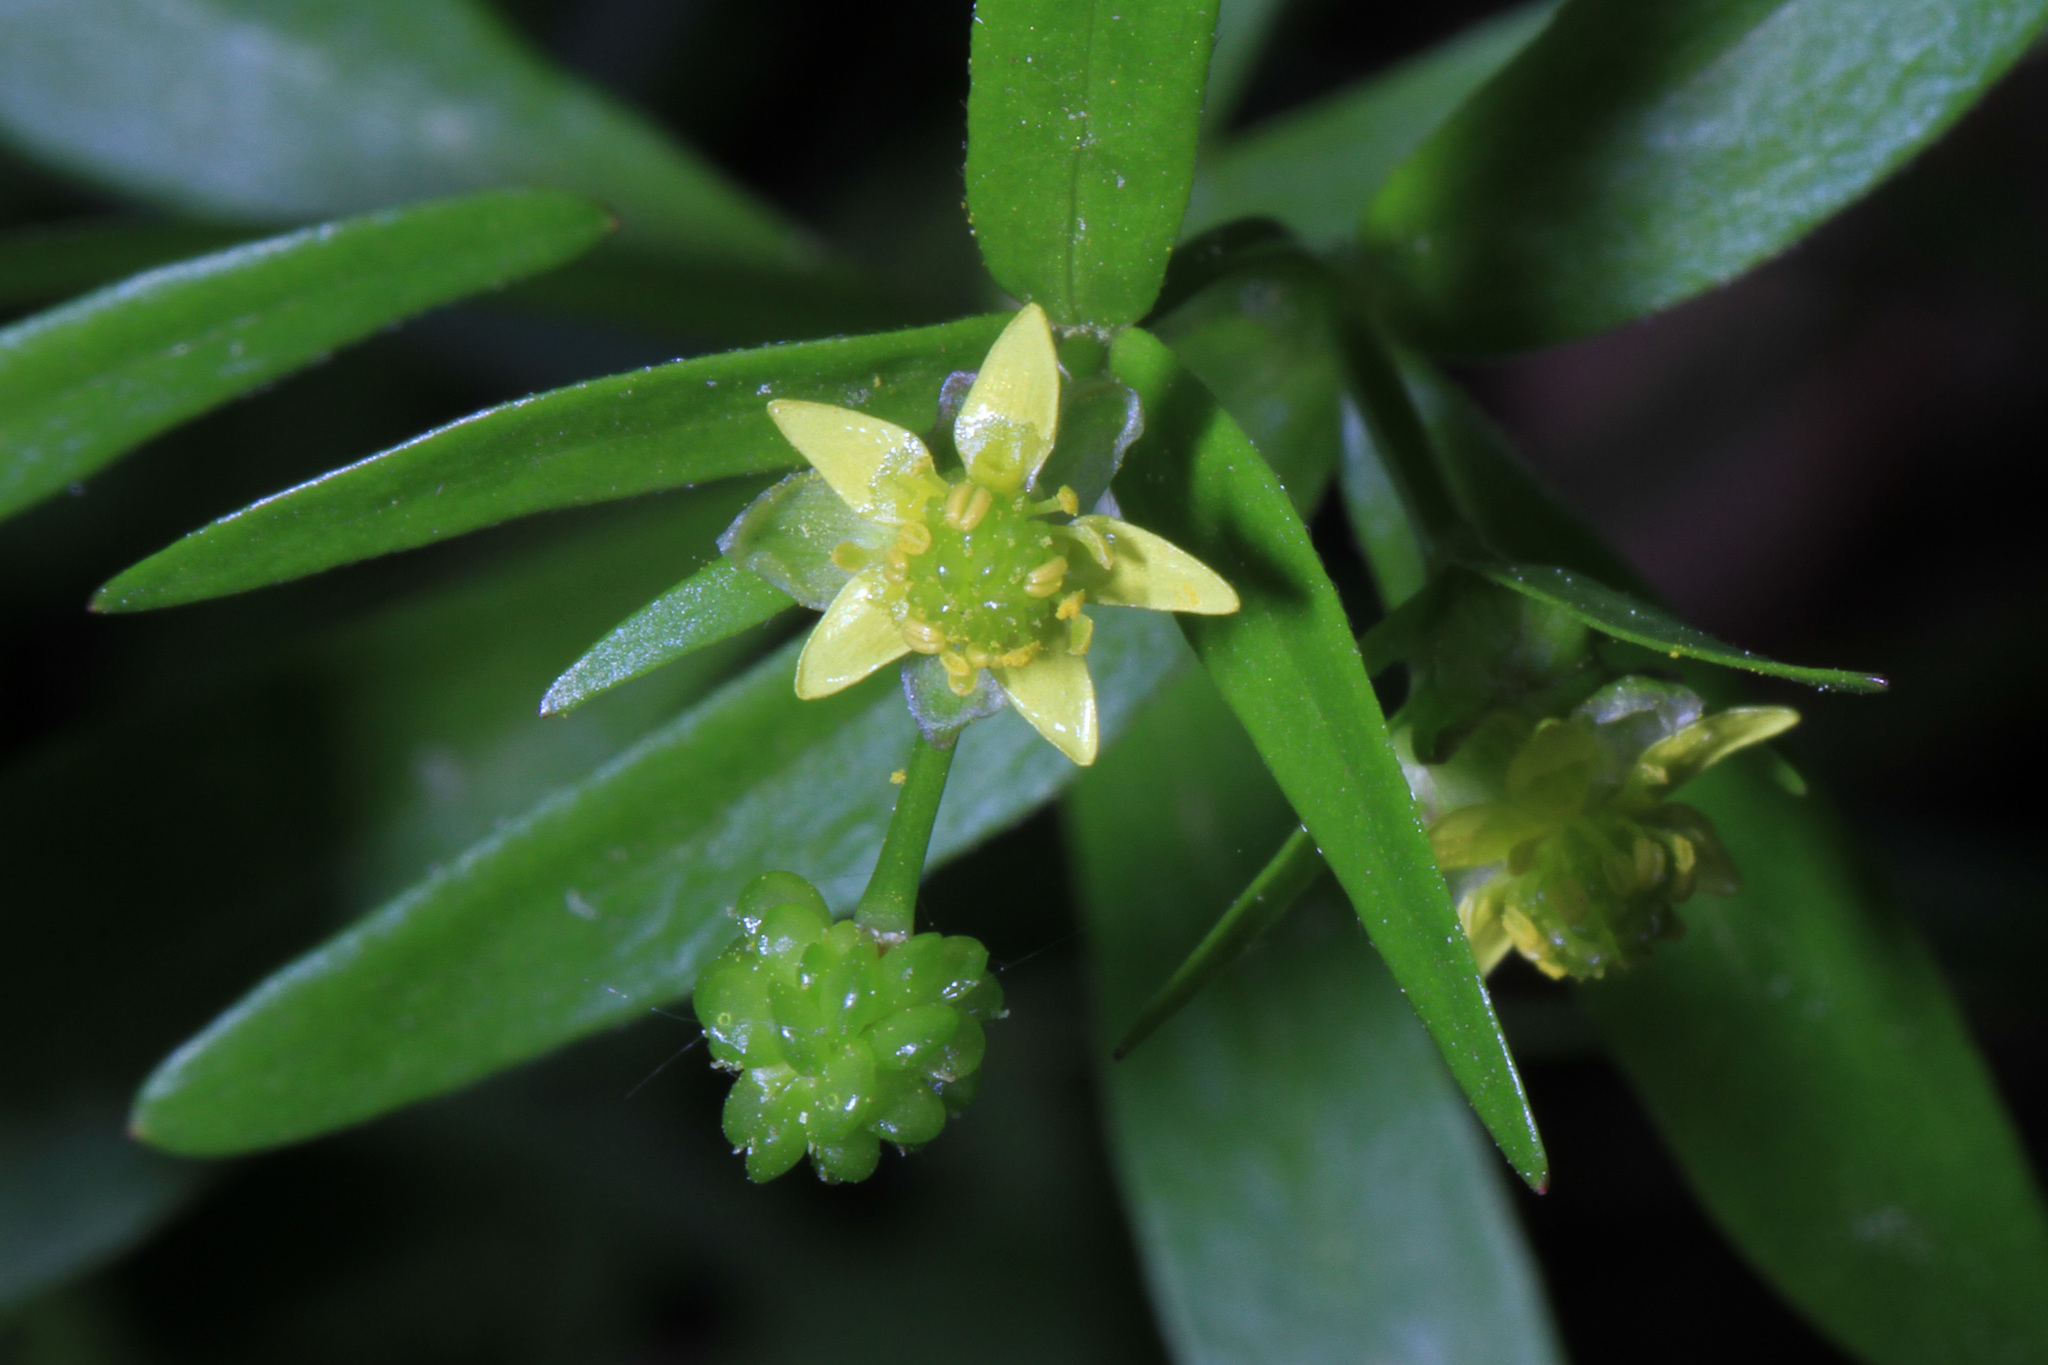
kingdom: Plantae
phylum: Tracheophyta
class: Magnoliopsida
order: Ranunculales
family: Ranunculaceae
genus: Ranunculus
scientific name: Ranunculus abortivus
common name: Early wood buttercup
